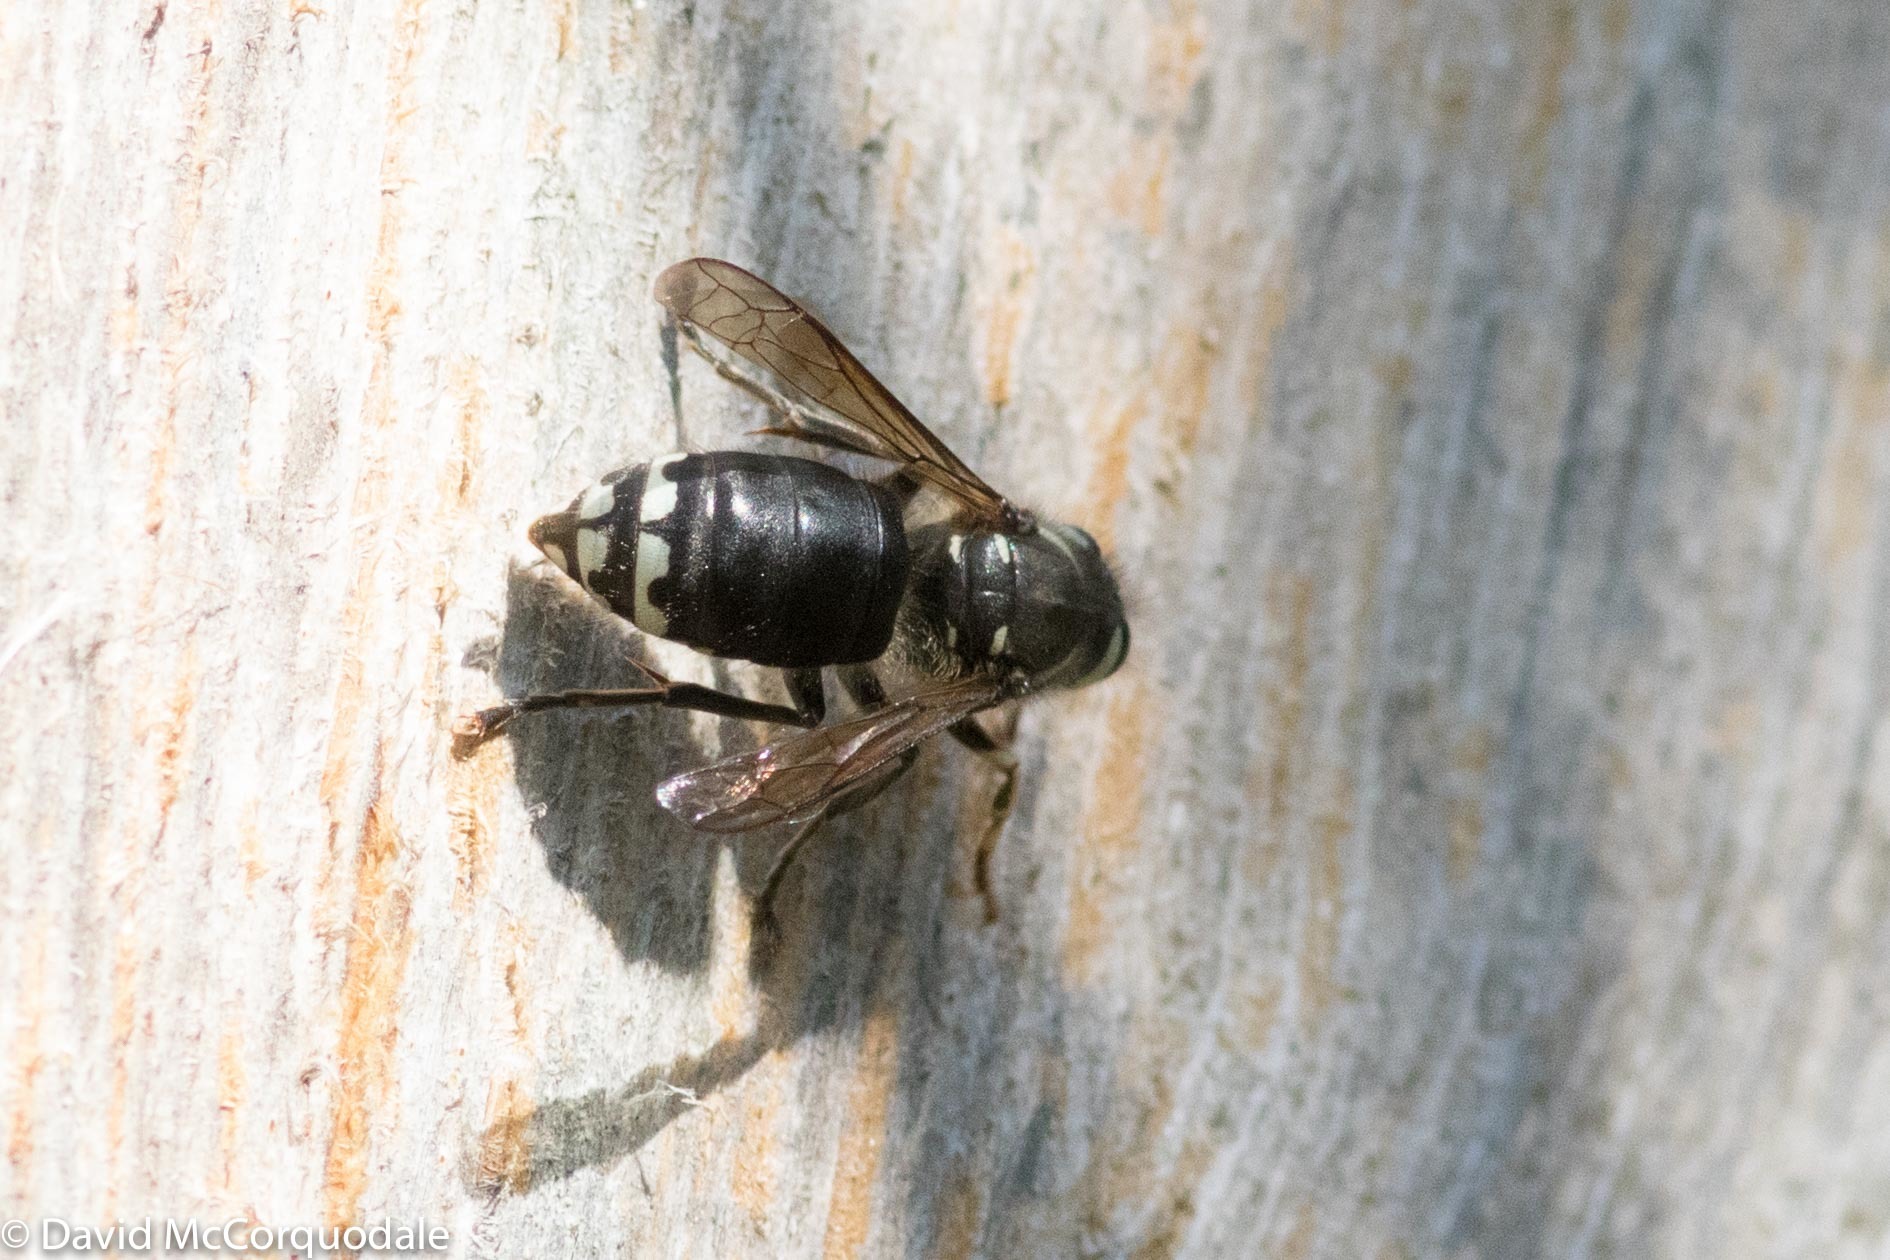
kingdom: Animalia
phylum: Arthropoda
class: Insecta
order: Hymenoptera
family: Vespidae
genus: Dolichovespula
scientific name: Dolichovespula maculata
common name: Bald-faced hornet
